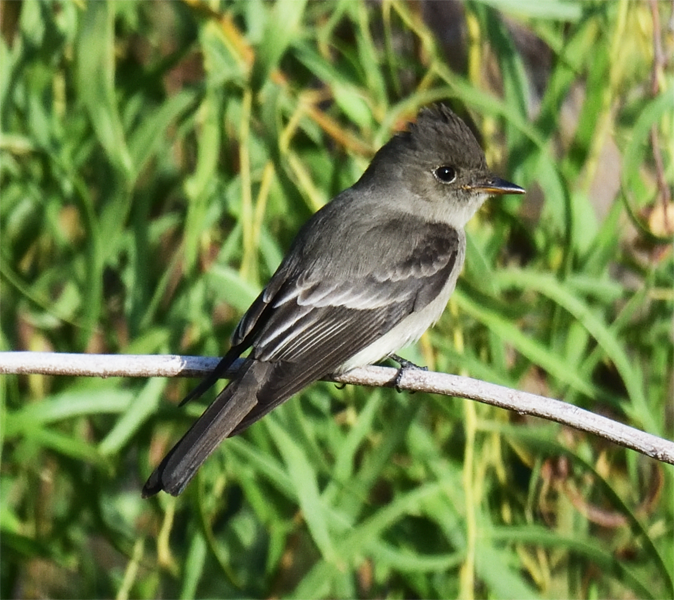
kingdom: Animalia
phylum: Chordata
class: Aves
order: Passeriformes
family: Tyrannidae
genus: Contopus
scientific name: Contopus sordidulus
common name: Western wood-pewee
